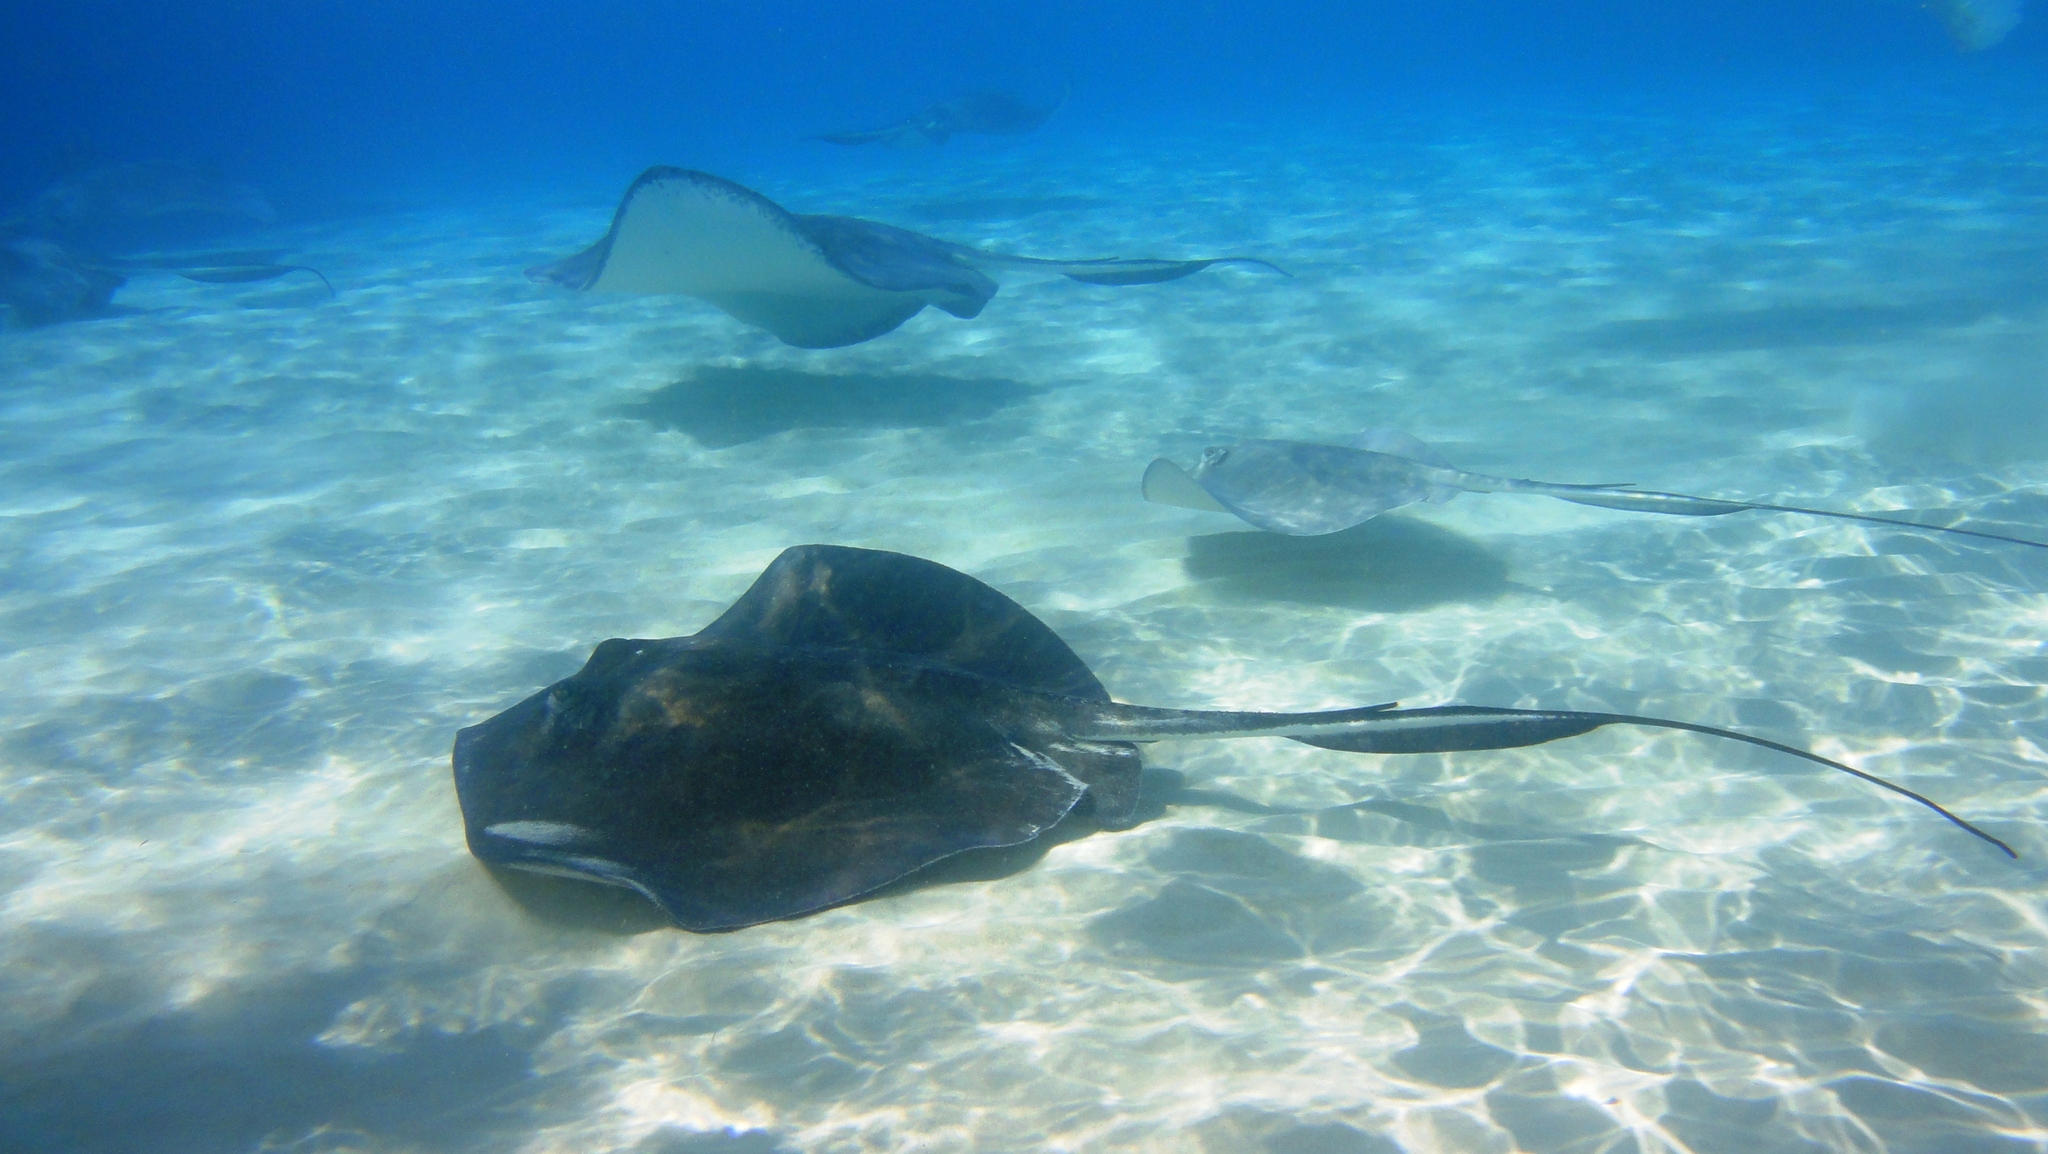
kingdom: Animalia
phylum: Chordata
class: Elasmobranchii
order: Myliobatiformes
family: Dasyatidae
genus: Hypanus
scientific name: Hypanus americanus
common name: Southern stingray
